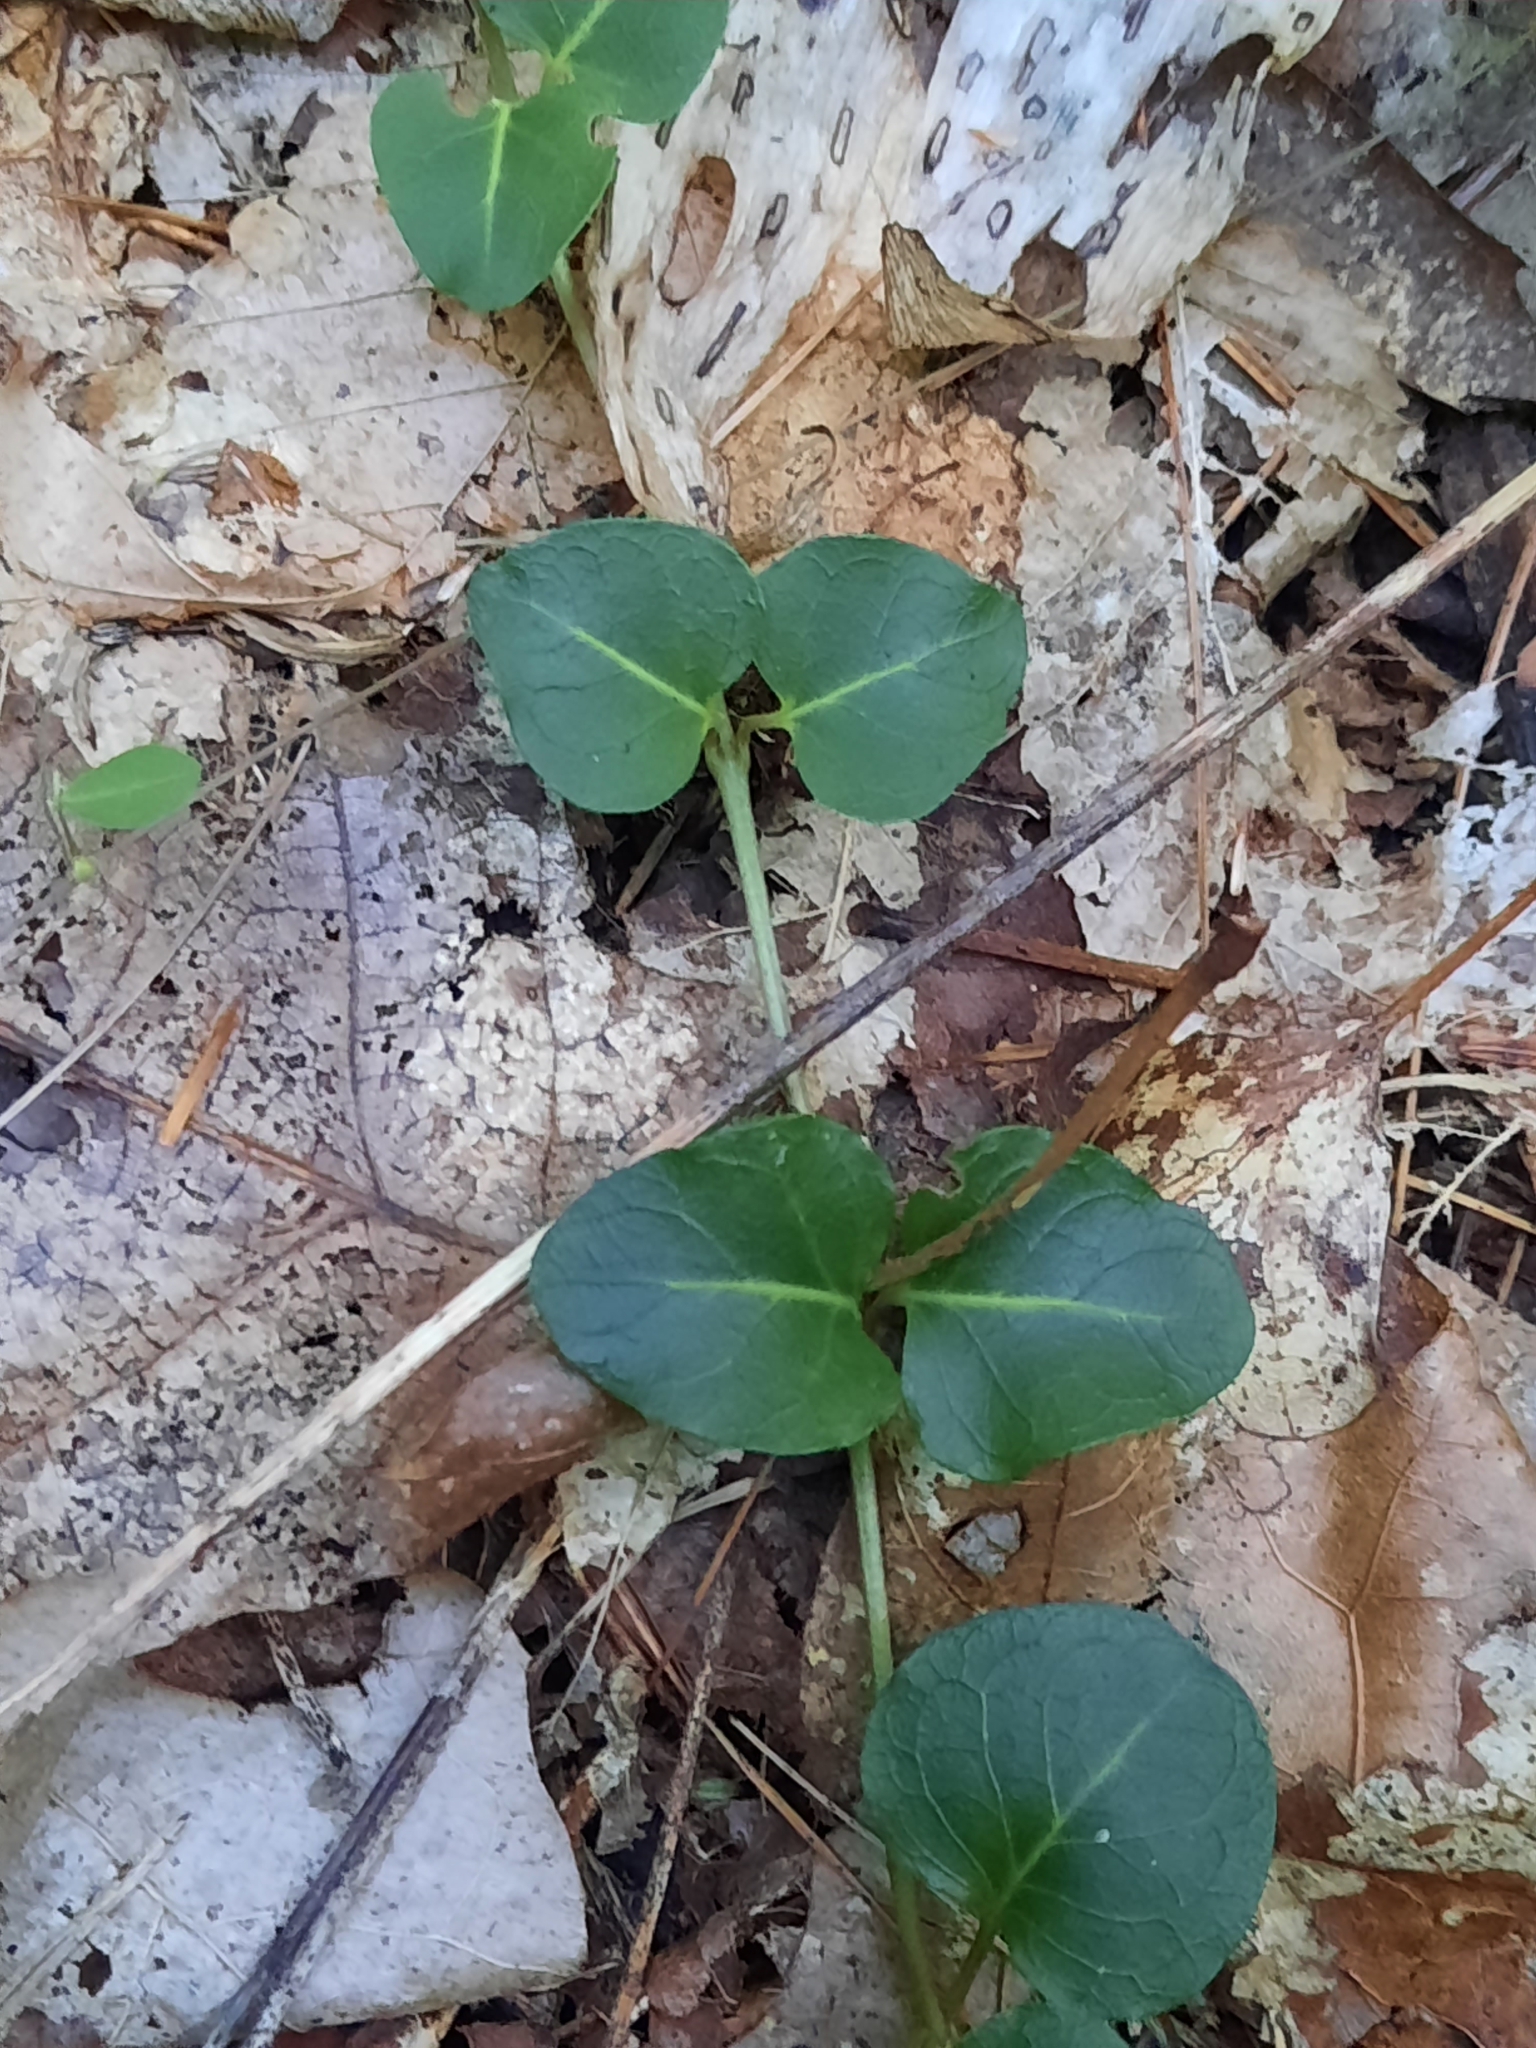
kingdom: Plantae
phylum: Tracheophyta
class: Magnoliopsida
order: Gentianales
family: Rubiaceae
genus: Mitchella
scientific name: Mitchella repens
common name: Partridge-berry
